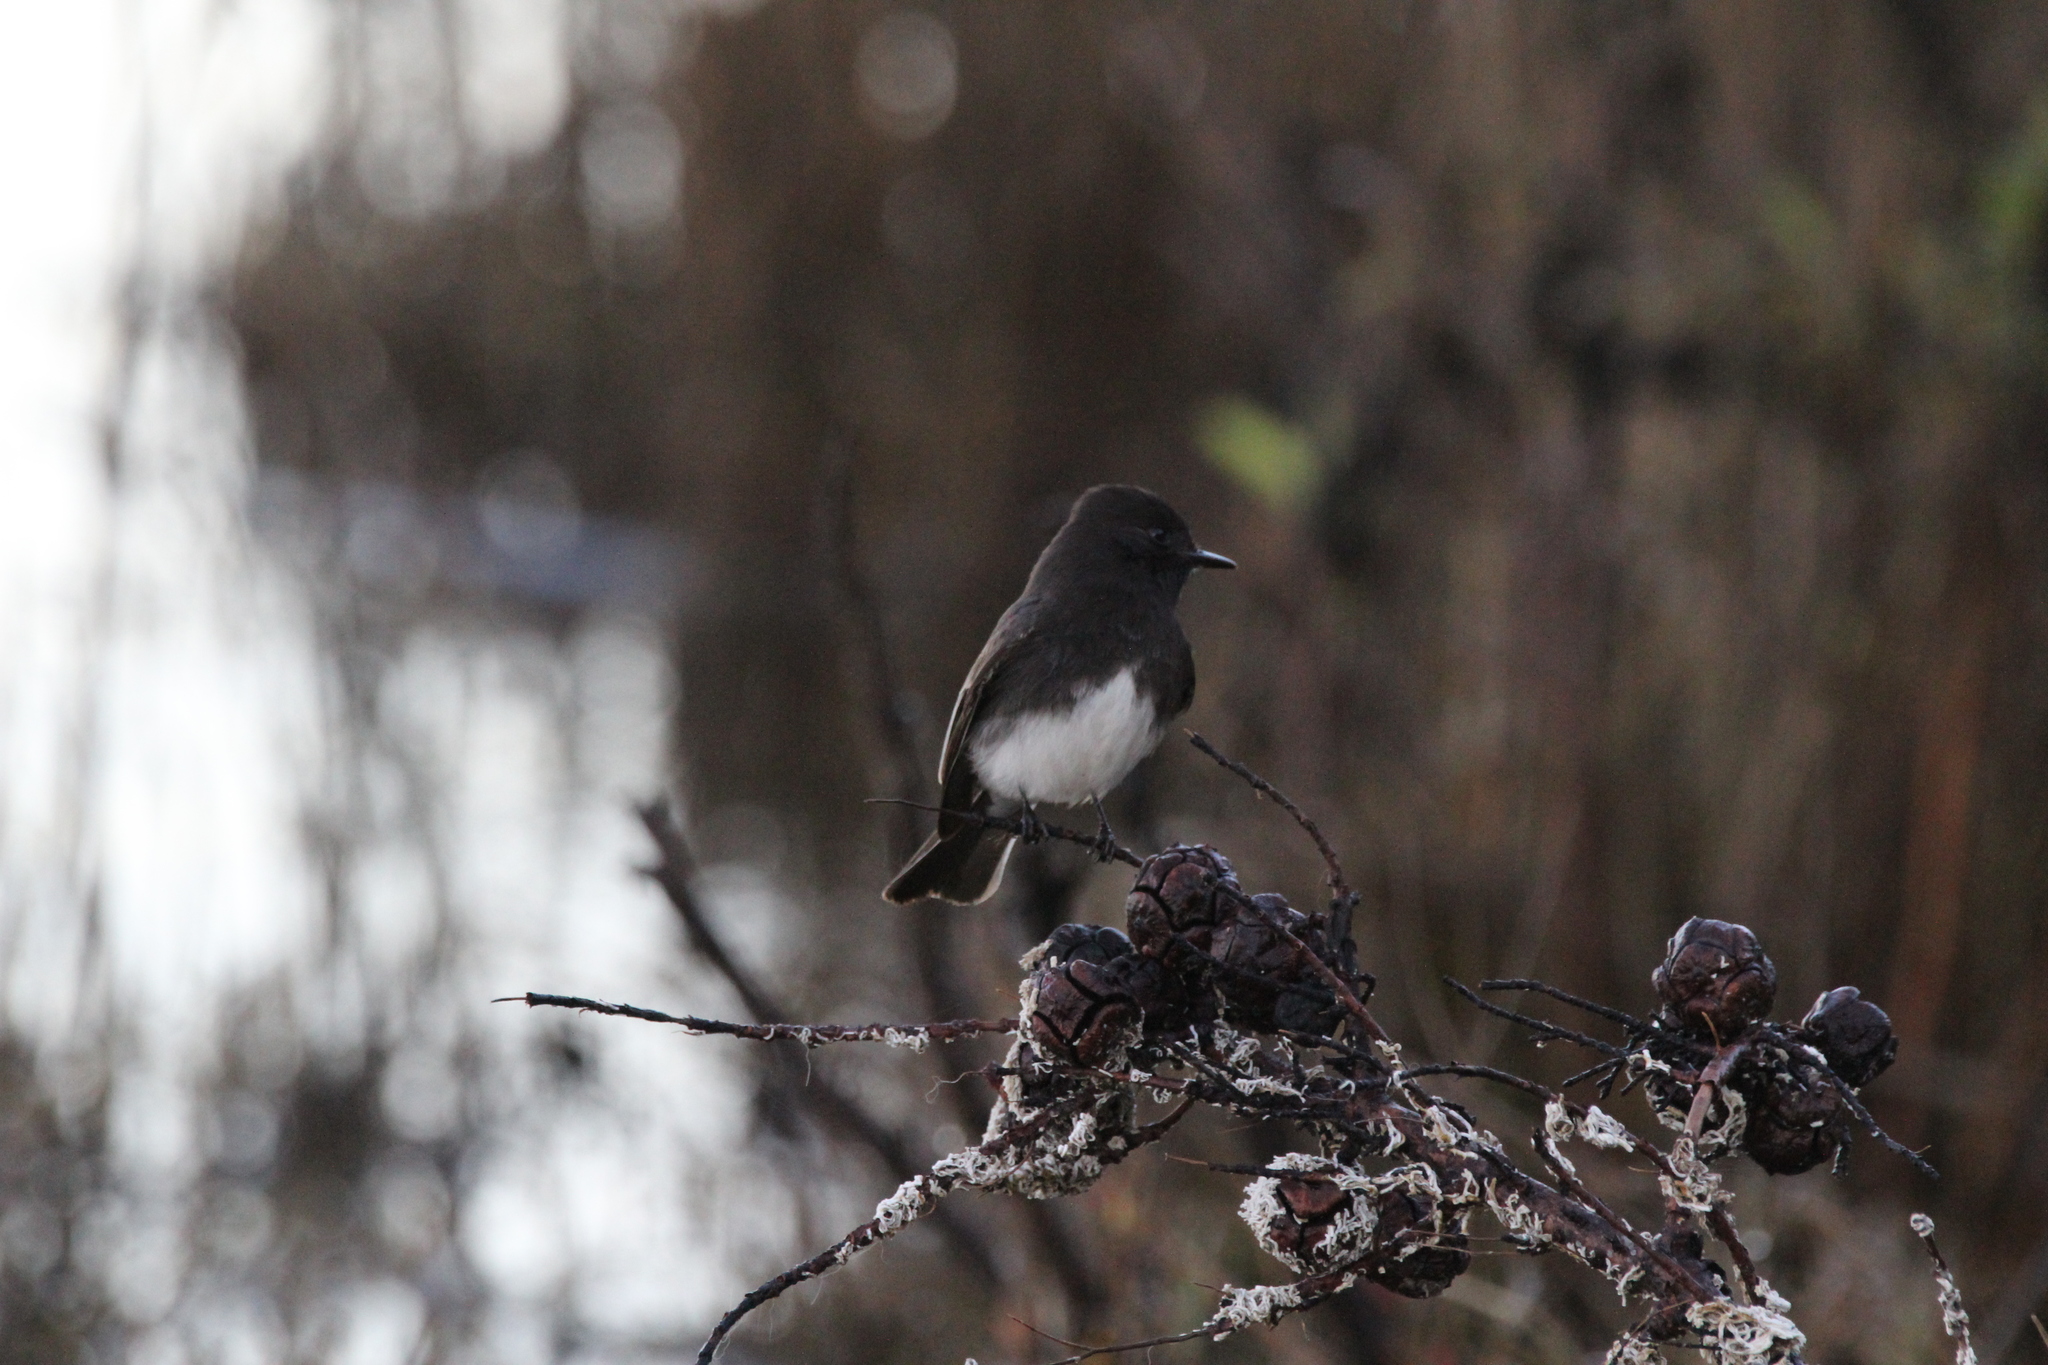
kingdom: Animalia
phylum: Chordata
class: Aves
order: Passeriformes
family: Tyrannidae
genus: Sayornis
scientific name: Sayornis nigricans
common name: Black phoebe
